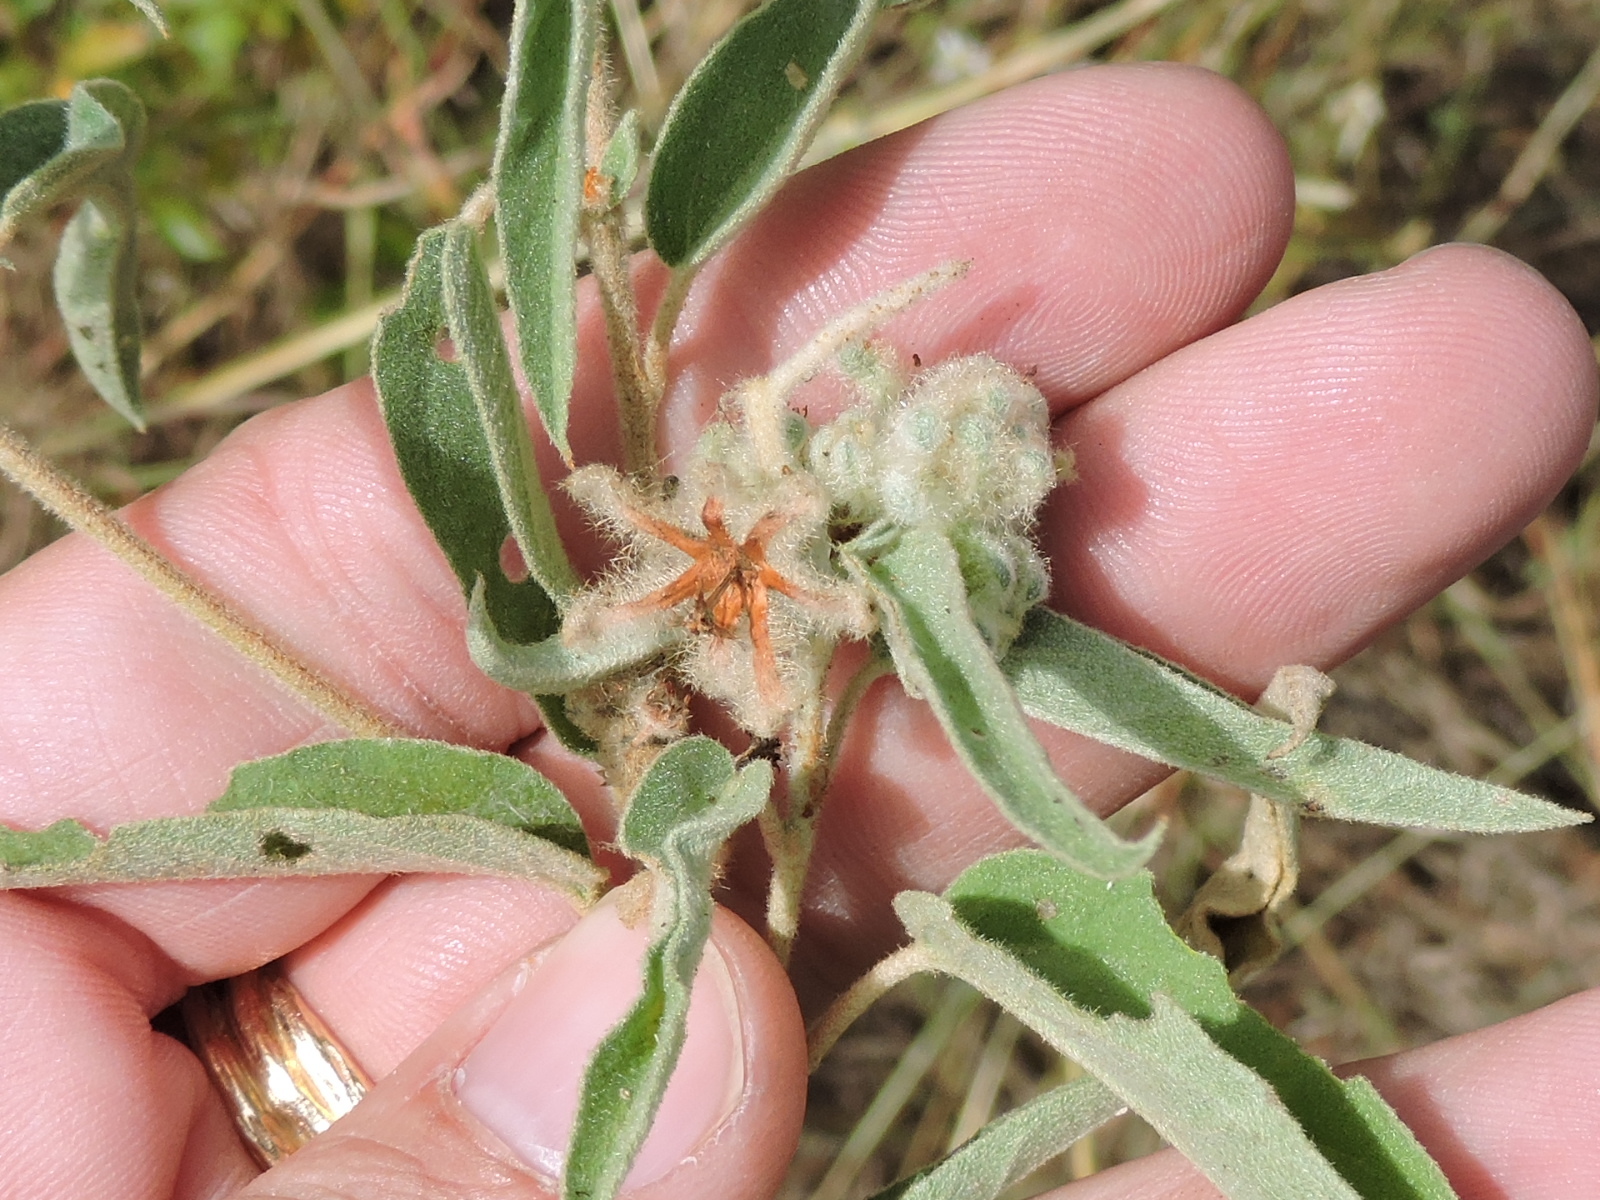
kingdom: Plantae
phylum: Tracheophyta
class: Magnoliopsida
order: Malpighiales
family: Euphorbiaceae
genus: Croton
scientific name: Croton lindheimeri
